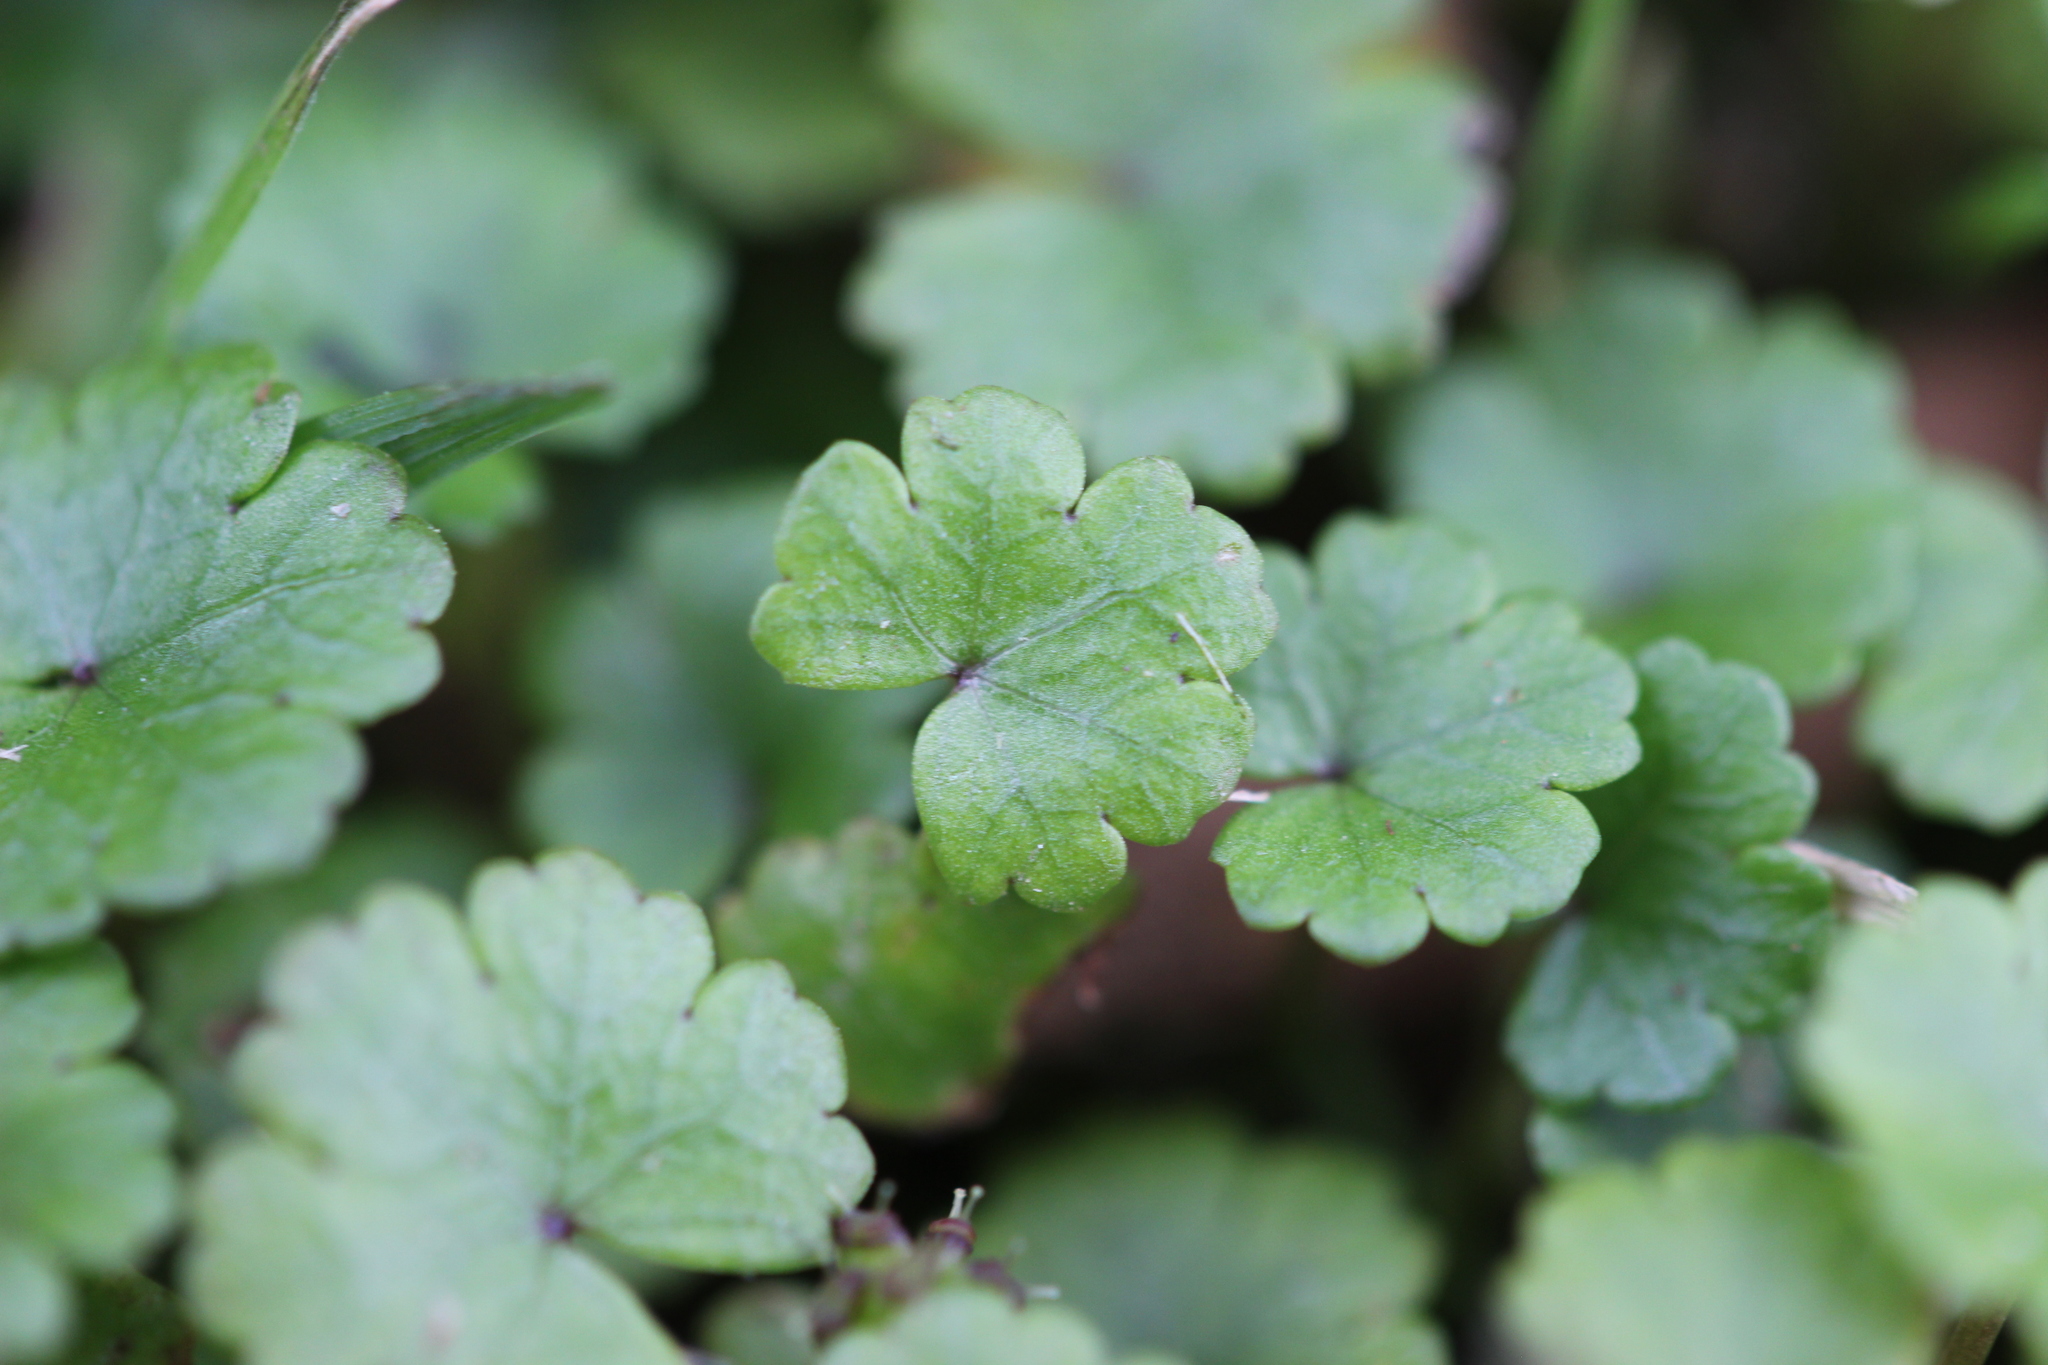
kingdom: Plantae
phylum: Tracheophyta
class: Magnoliopsida
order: Apiales
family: Araliaceae
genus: Hydrocotyle
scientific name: Hydrocotyle microphylla
